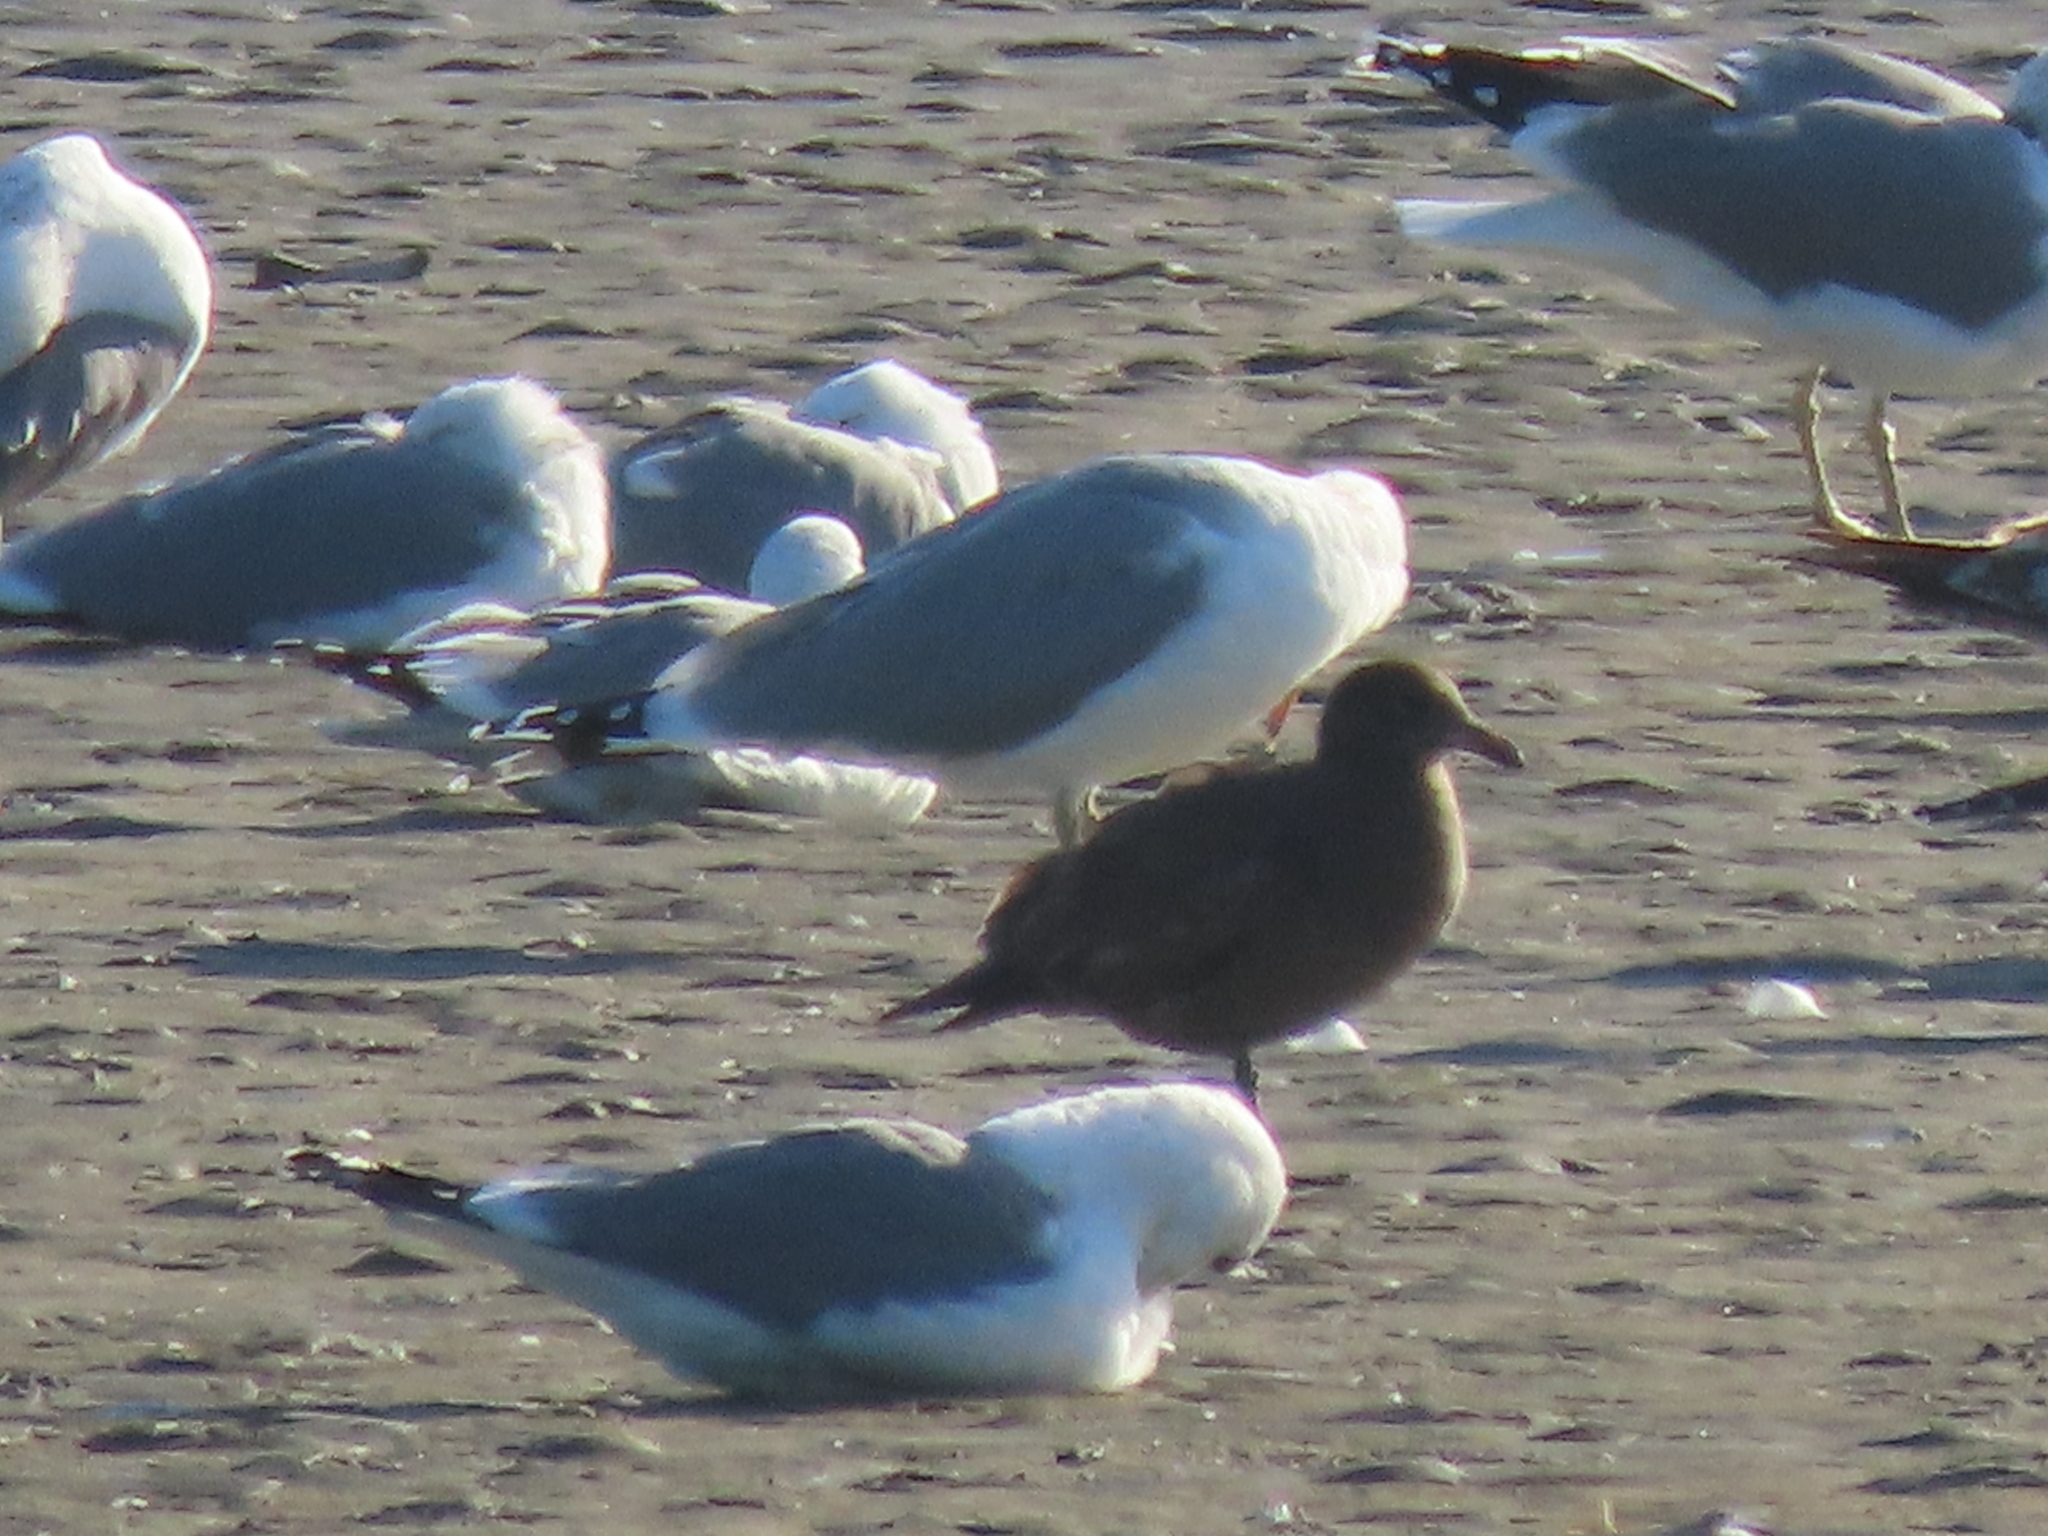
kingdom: Animalia
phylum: Chordata
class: Aves
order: Charadriiformes
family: Laridae
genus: Larus
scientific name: Larus californicus
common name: California gull
